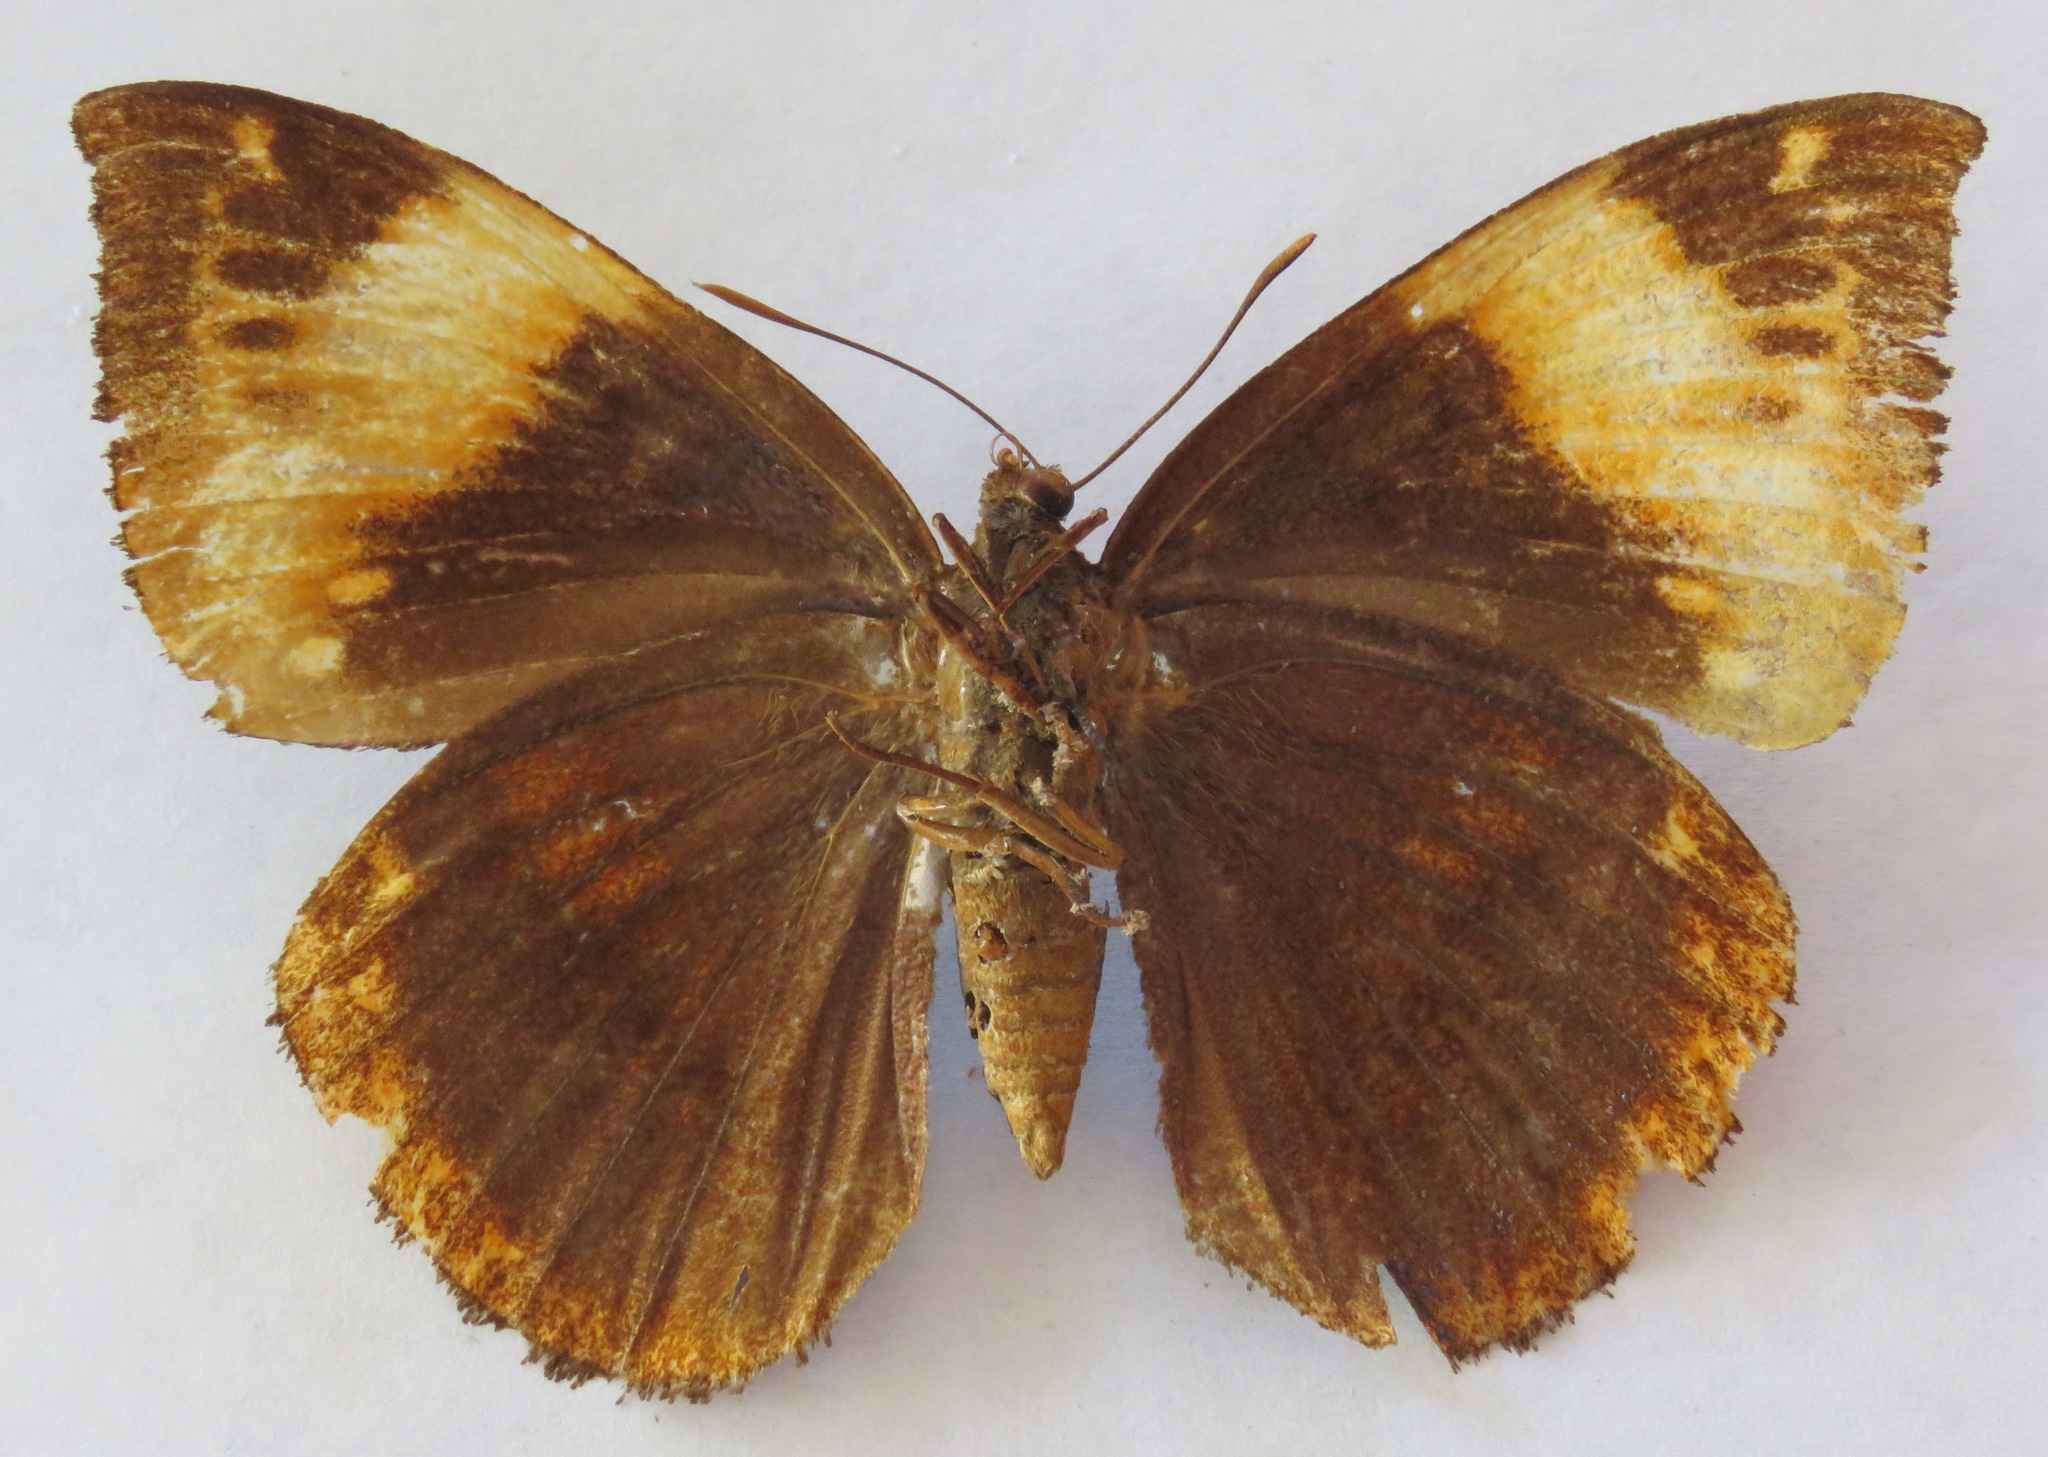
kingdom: Animalia
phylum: Arthropoda
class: Insecta
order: Lepidoptera
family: Castniidae
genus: Divana
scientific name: Divana diva
